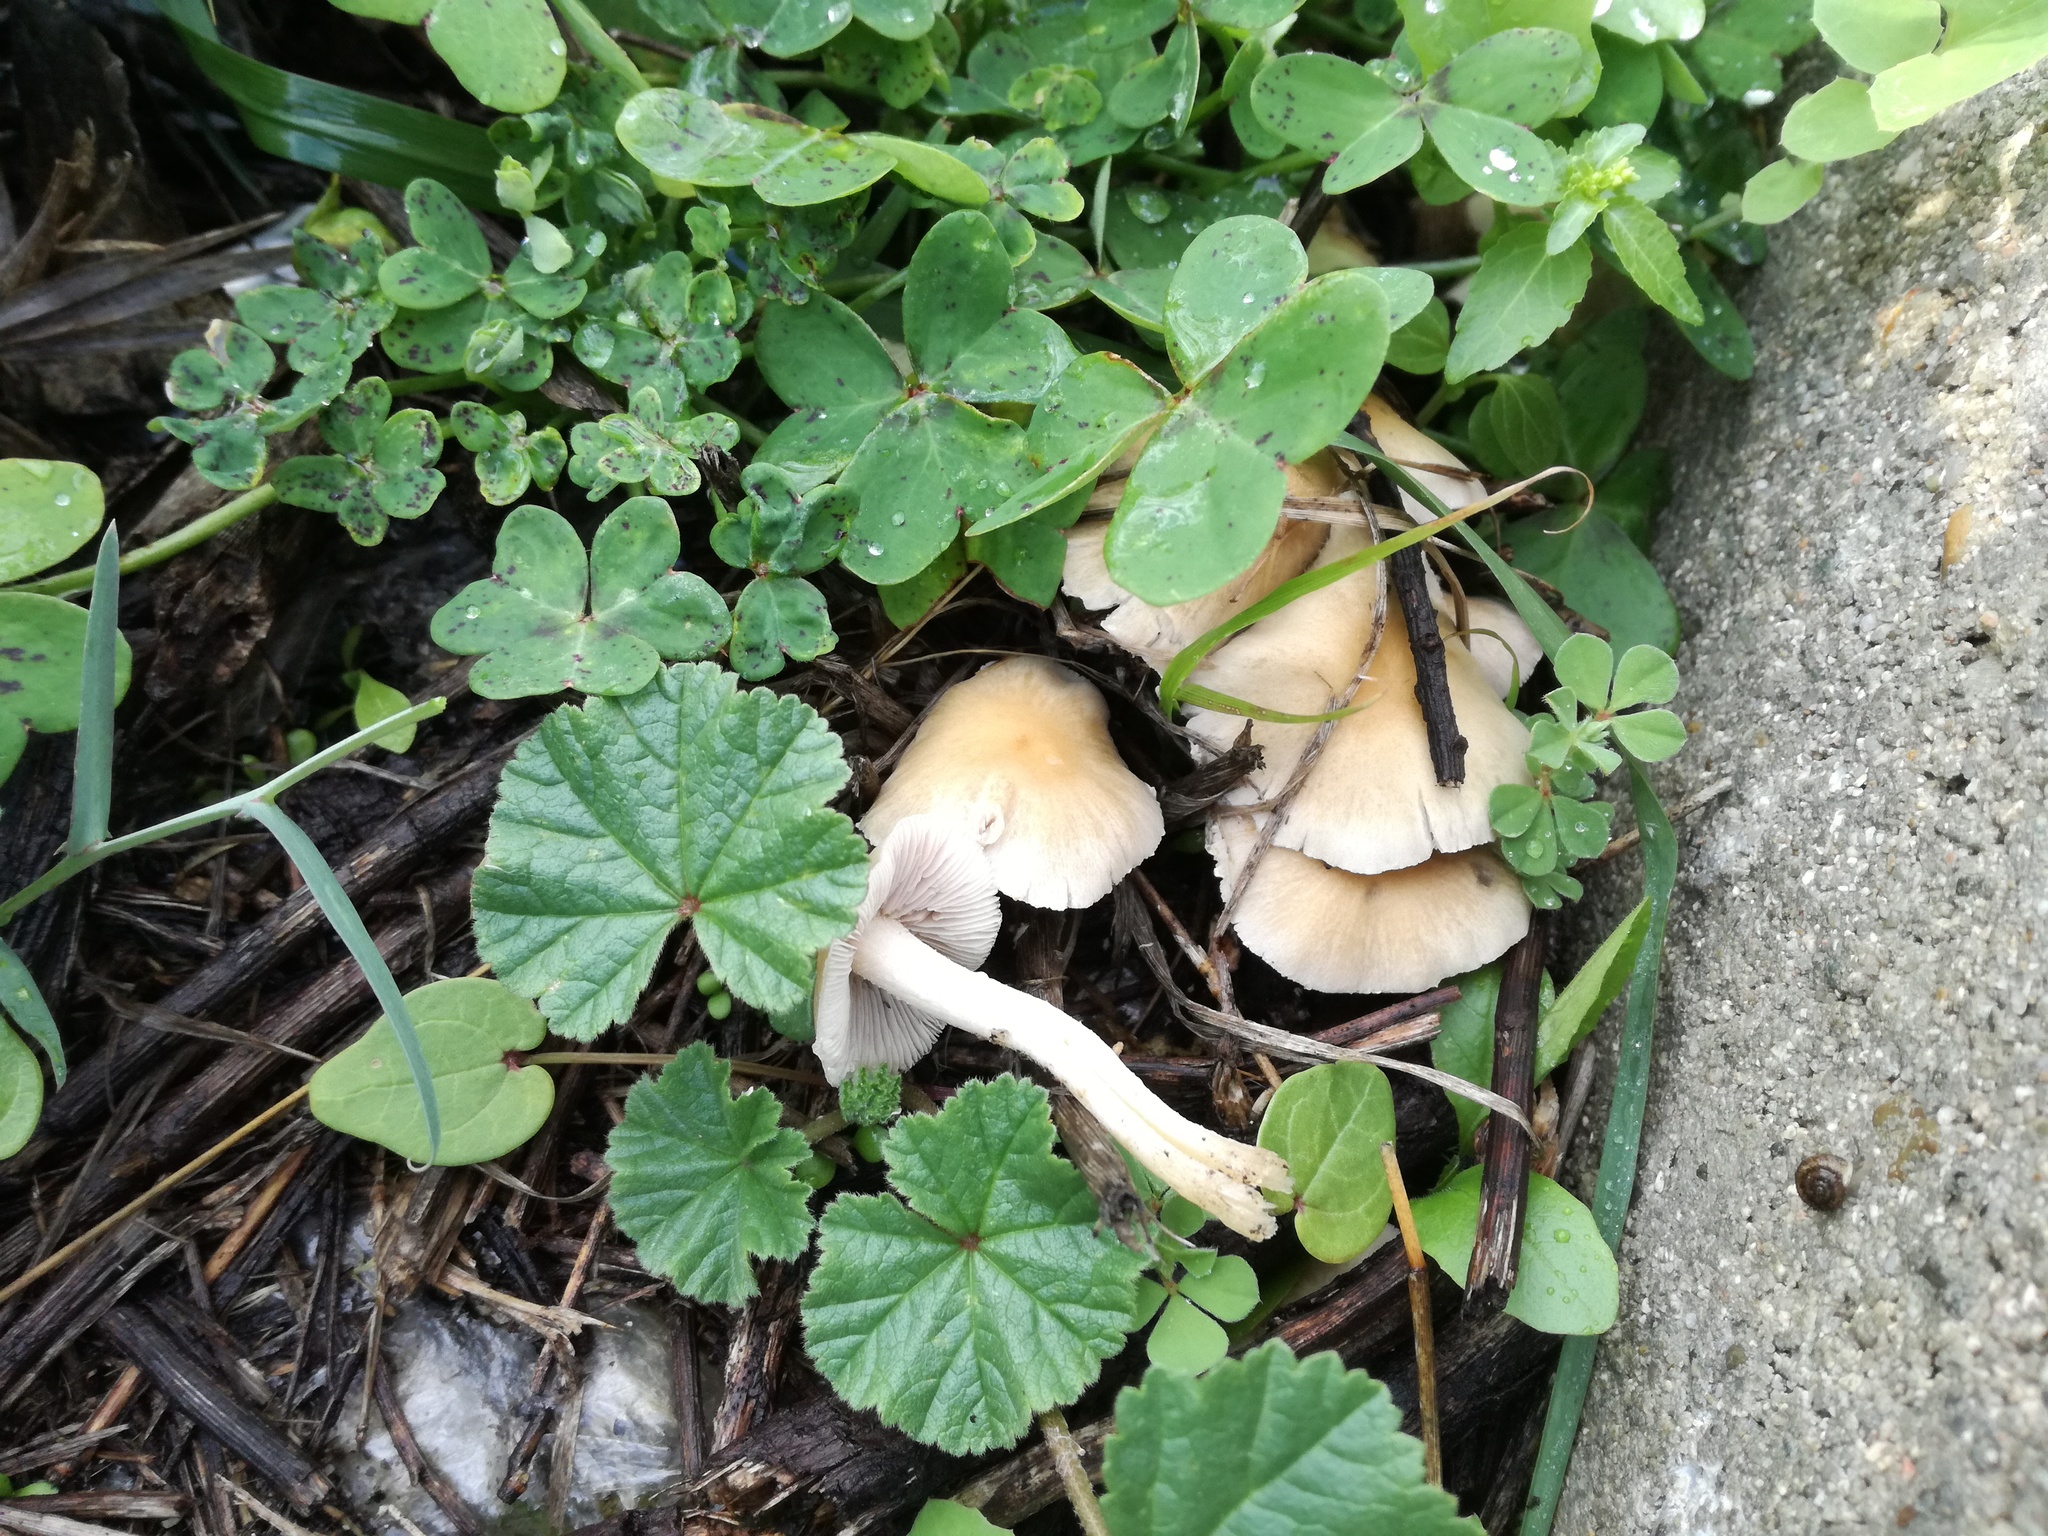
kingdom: Fungi
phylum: Basidiomycota
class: Agaricomycetes
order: Agaricales
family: Psathyrellaceae
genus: Candolleomyces
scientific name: Candolleomyces candolleanus
